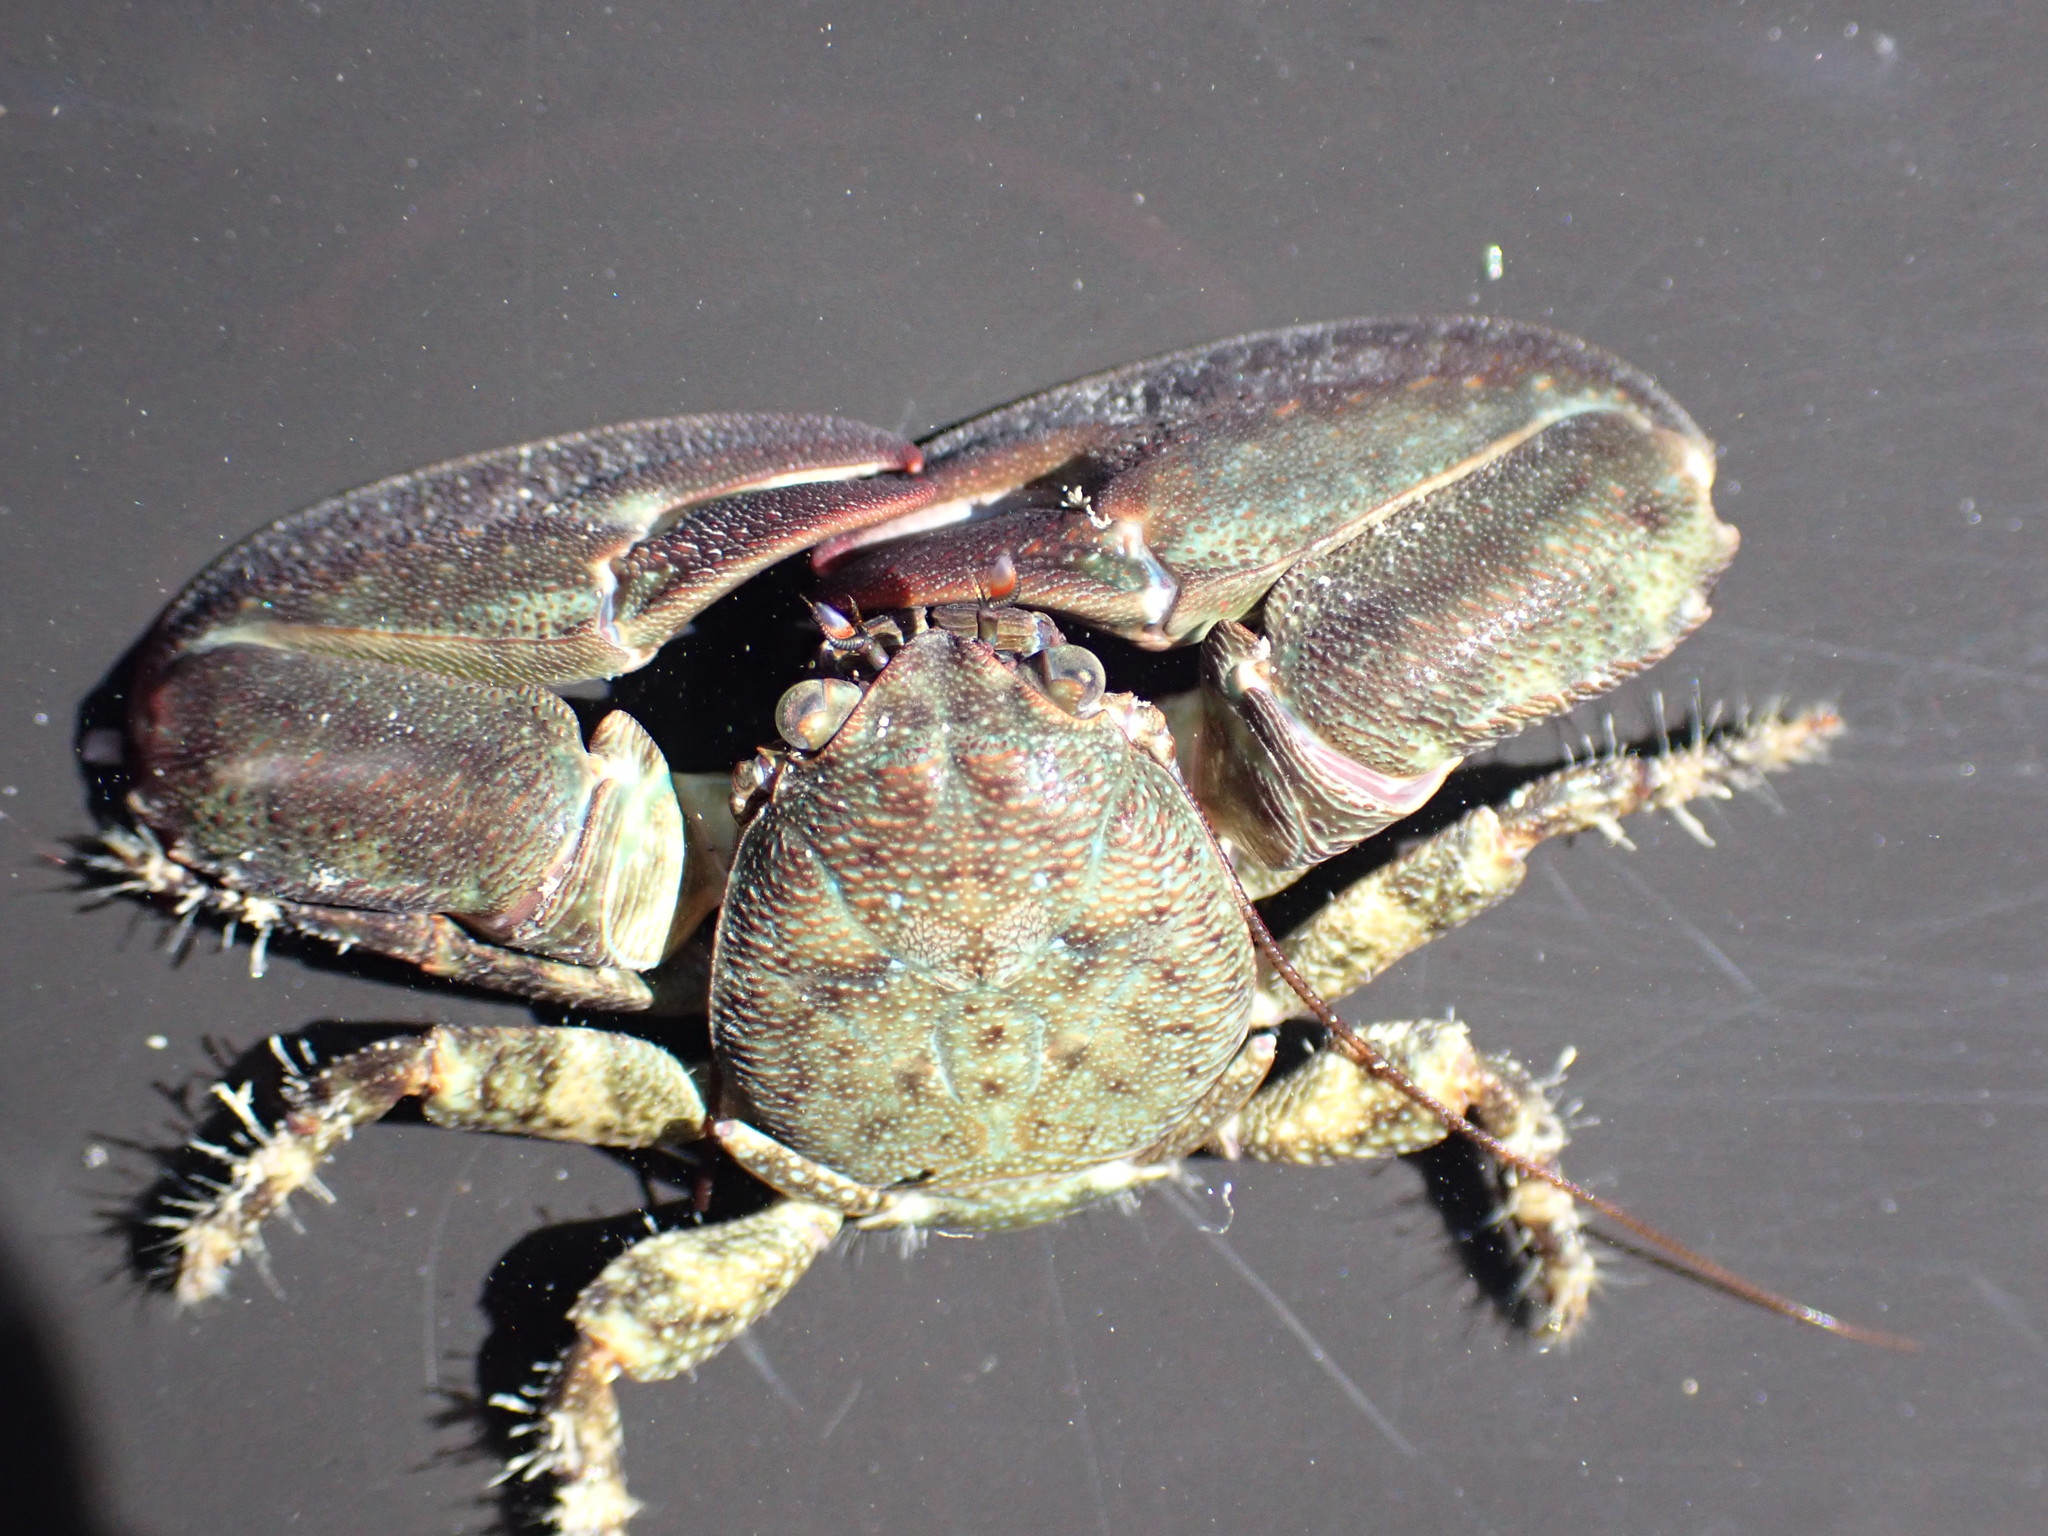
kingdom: Animalia
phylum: Arthropoda
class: Malacostraca
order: Decapoda
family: Porcellanidae
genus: Petrolisthes
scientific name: Petrolisthes elongatus
